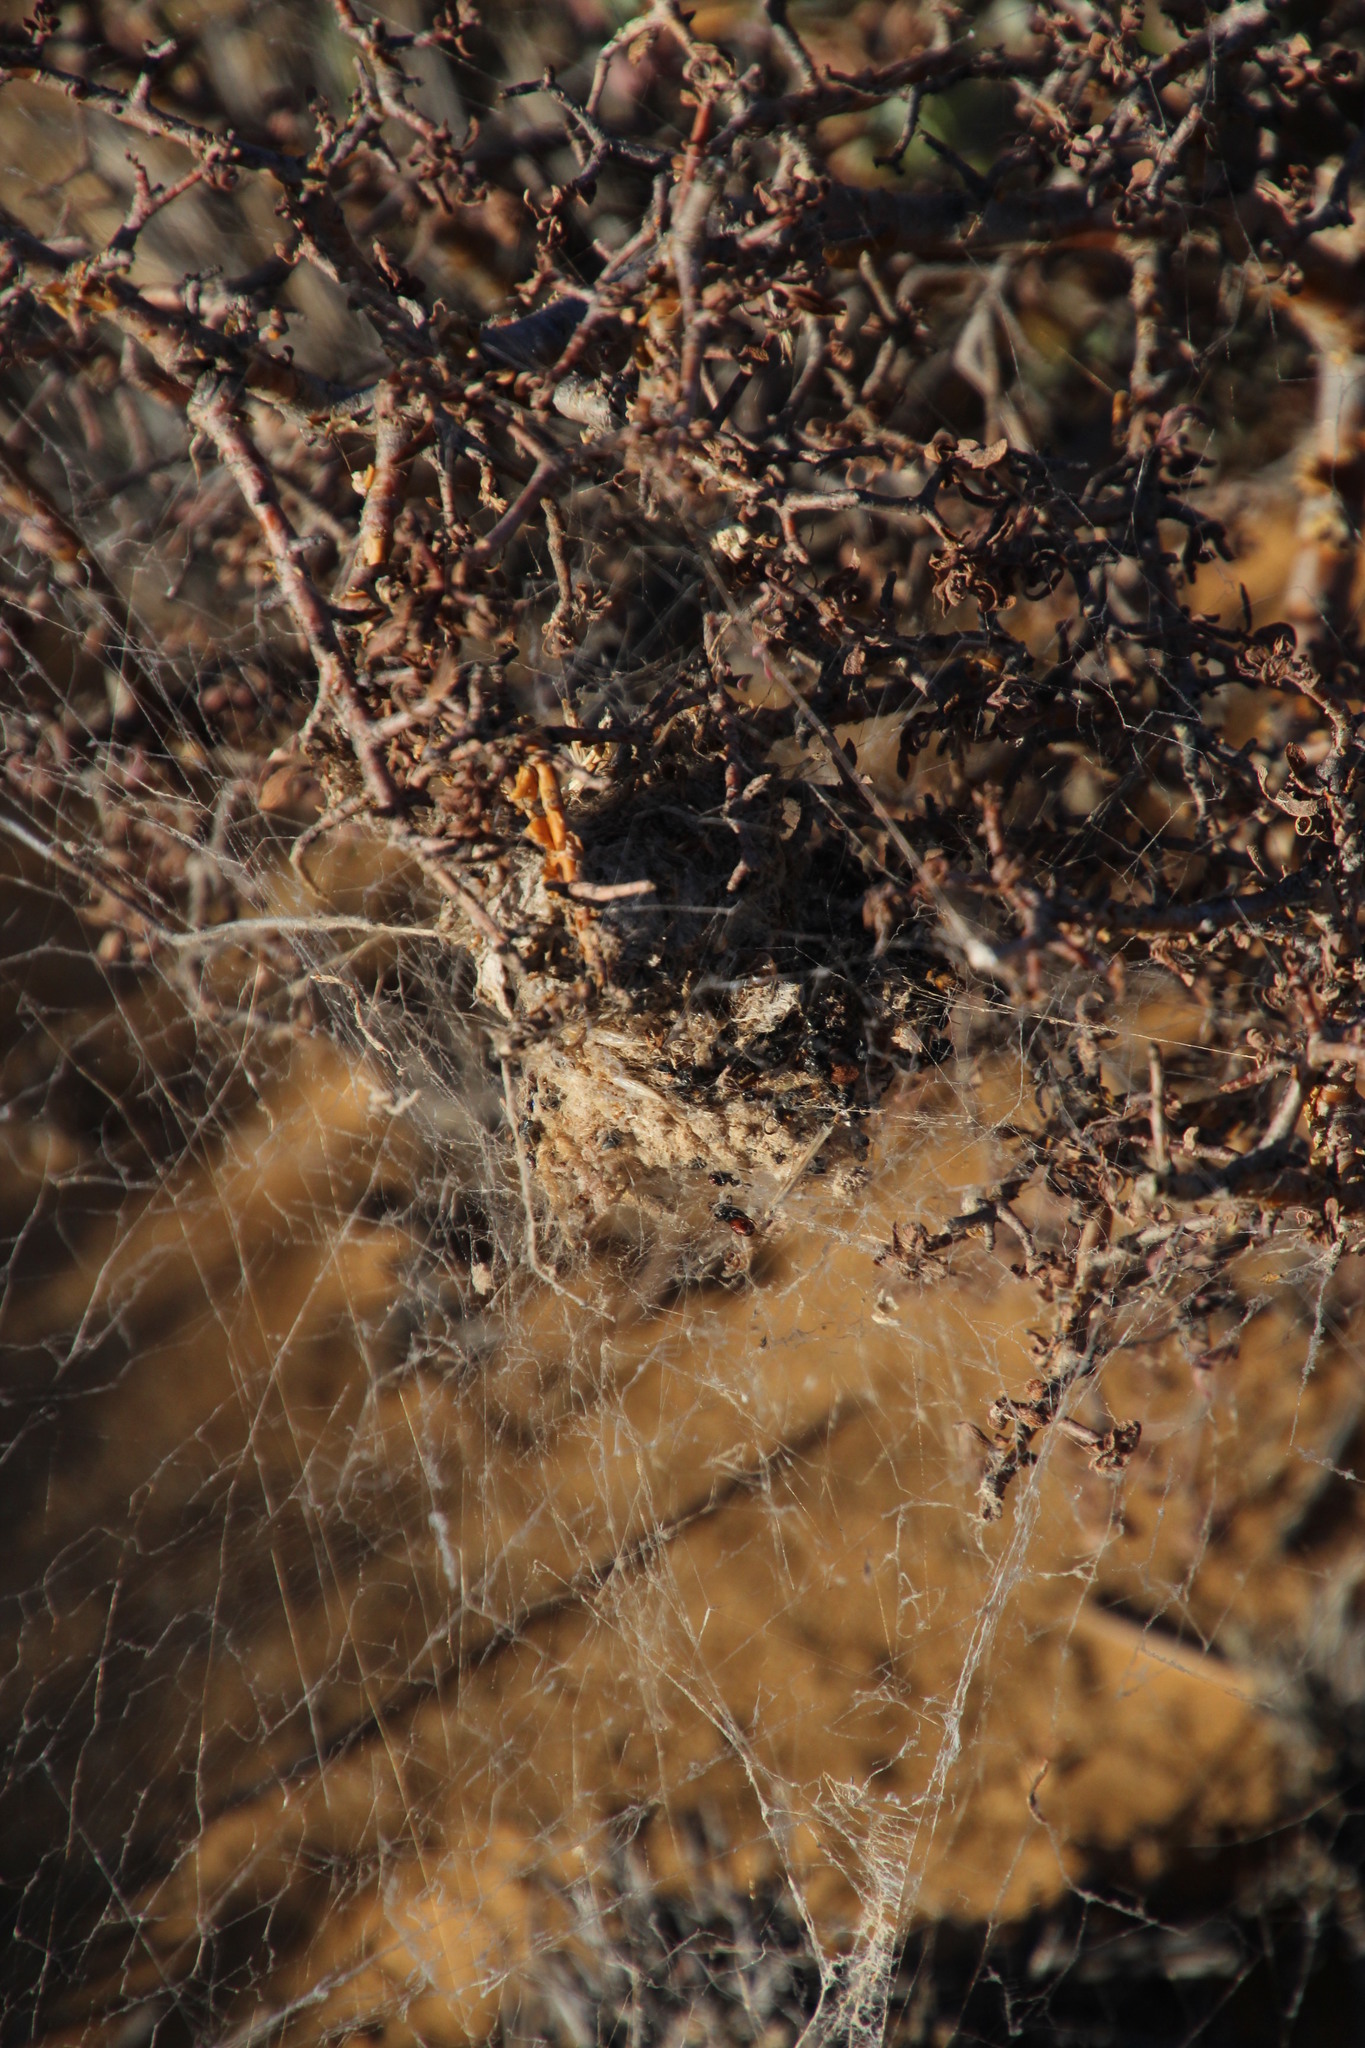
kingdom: Animalia
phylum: Arthropoda
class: Arachnida
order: Araneae
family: Eresidae
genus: Stegodyphus
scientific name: Stegodyphus dumicola
